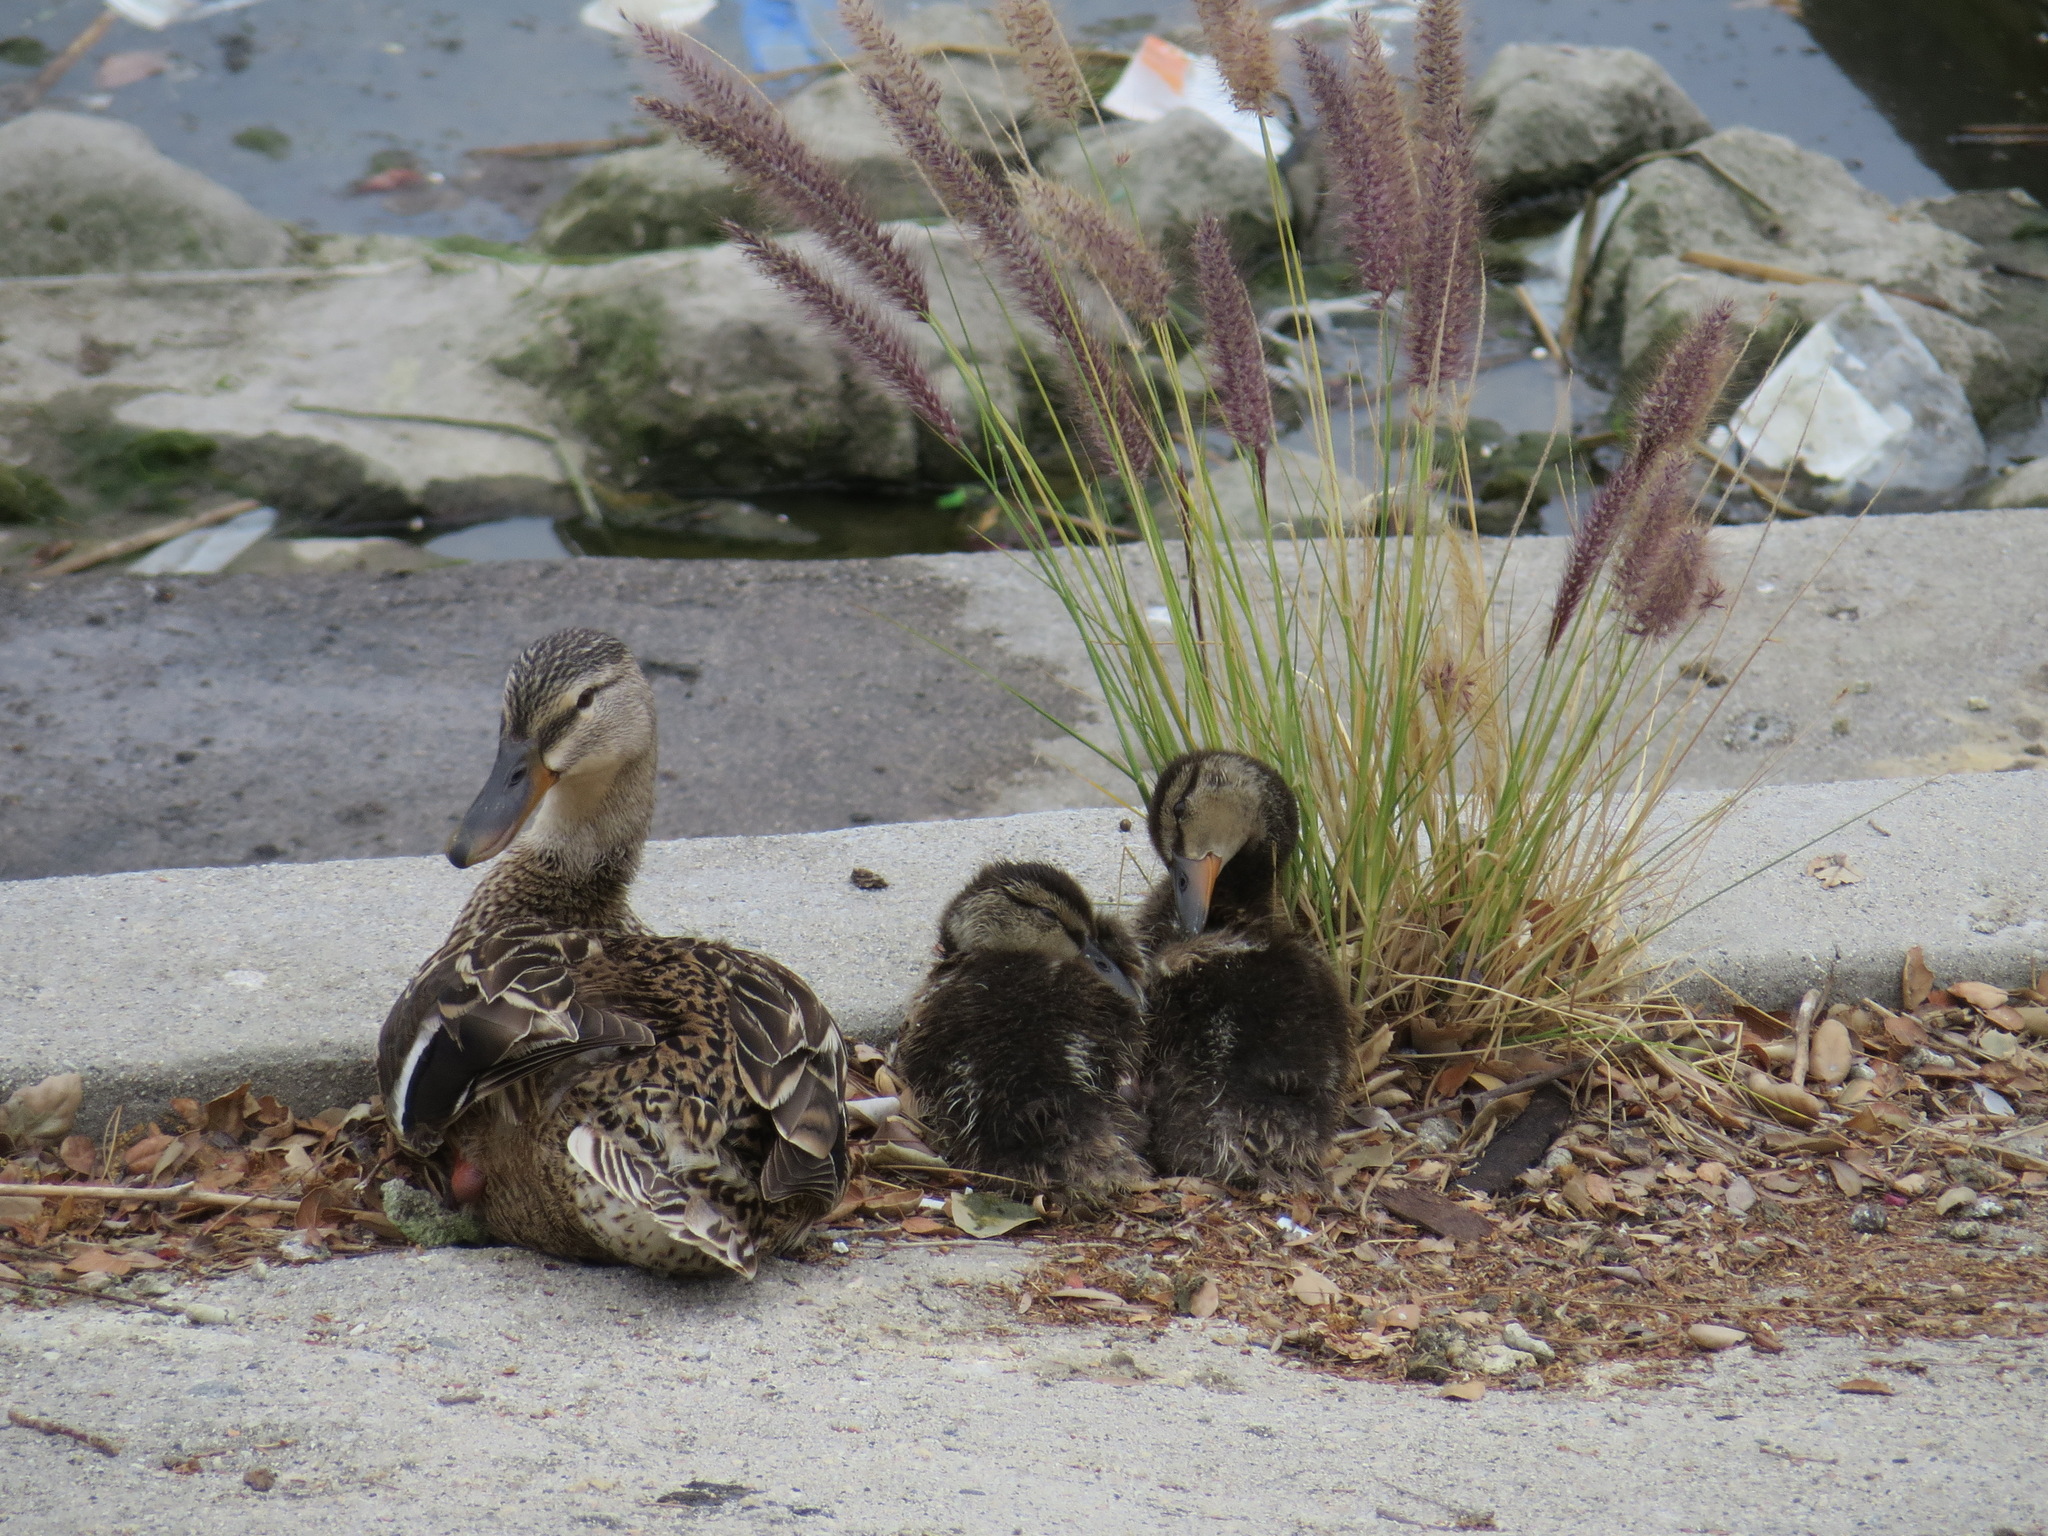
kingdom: Animalia
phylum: Chordata
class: Aves
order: Anseriformes
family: Anatidae
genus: Anas
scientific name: Anas platyrhynchos
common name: Mallard
